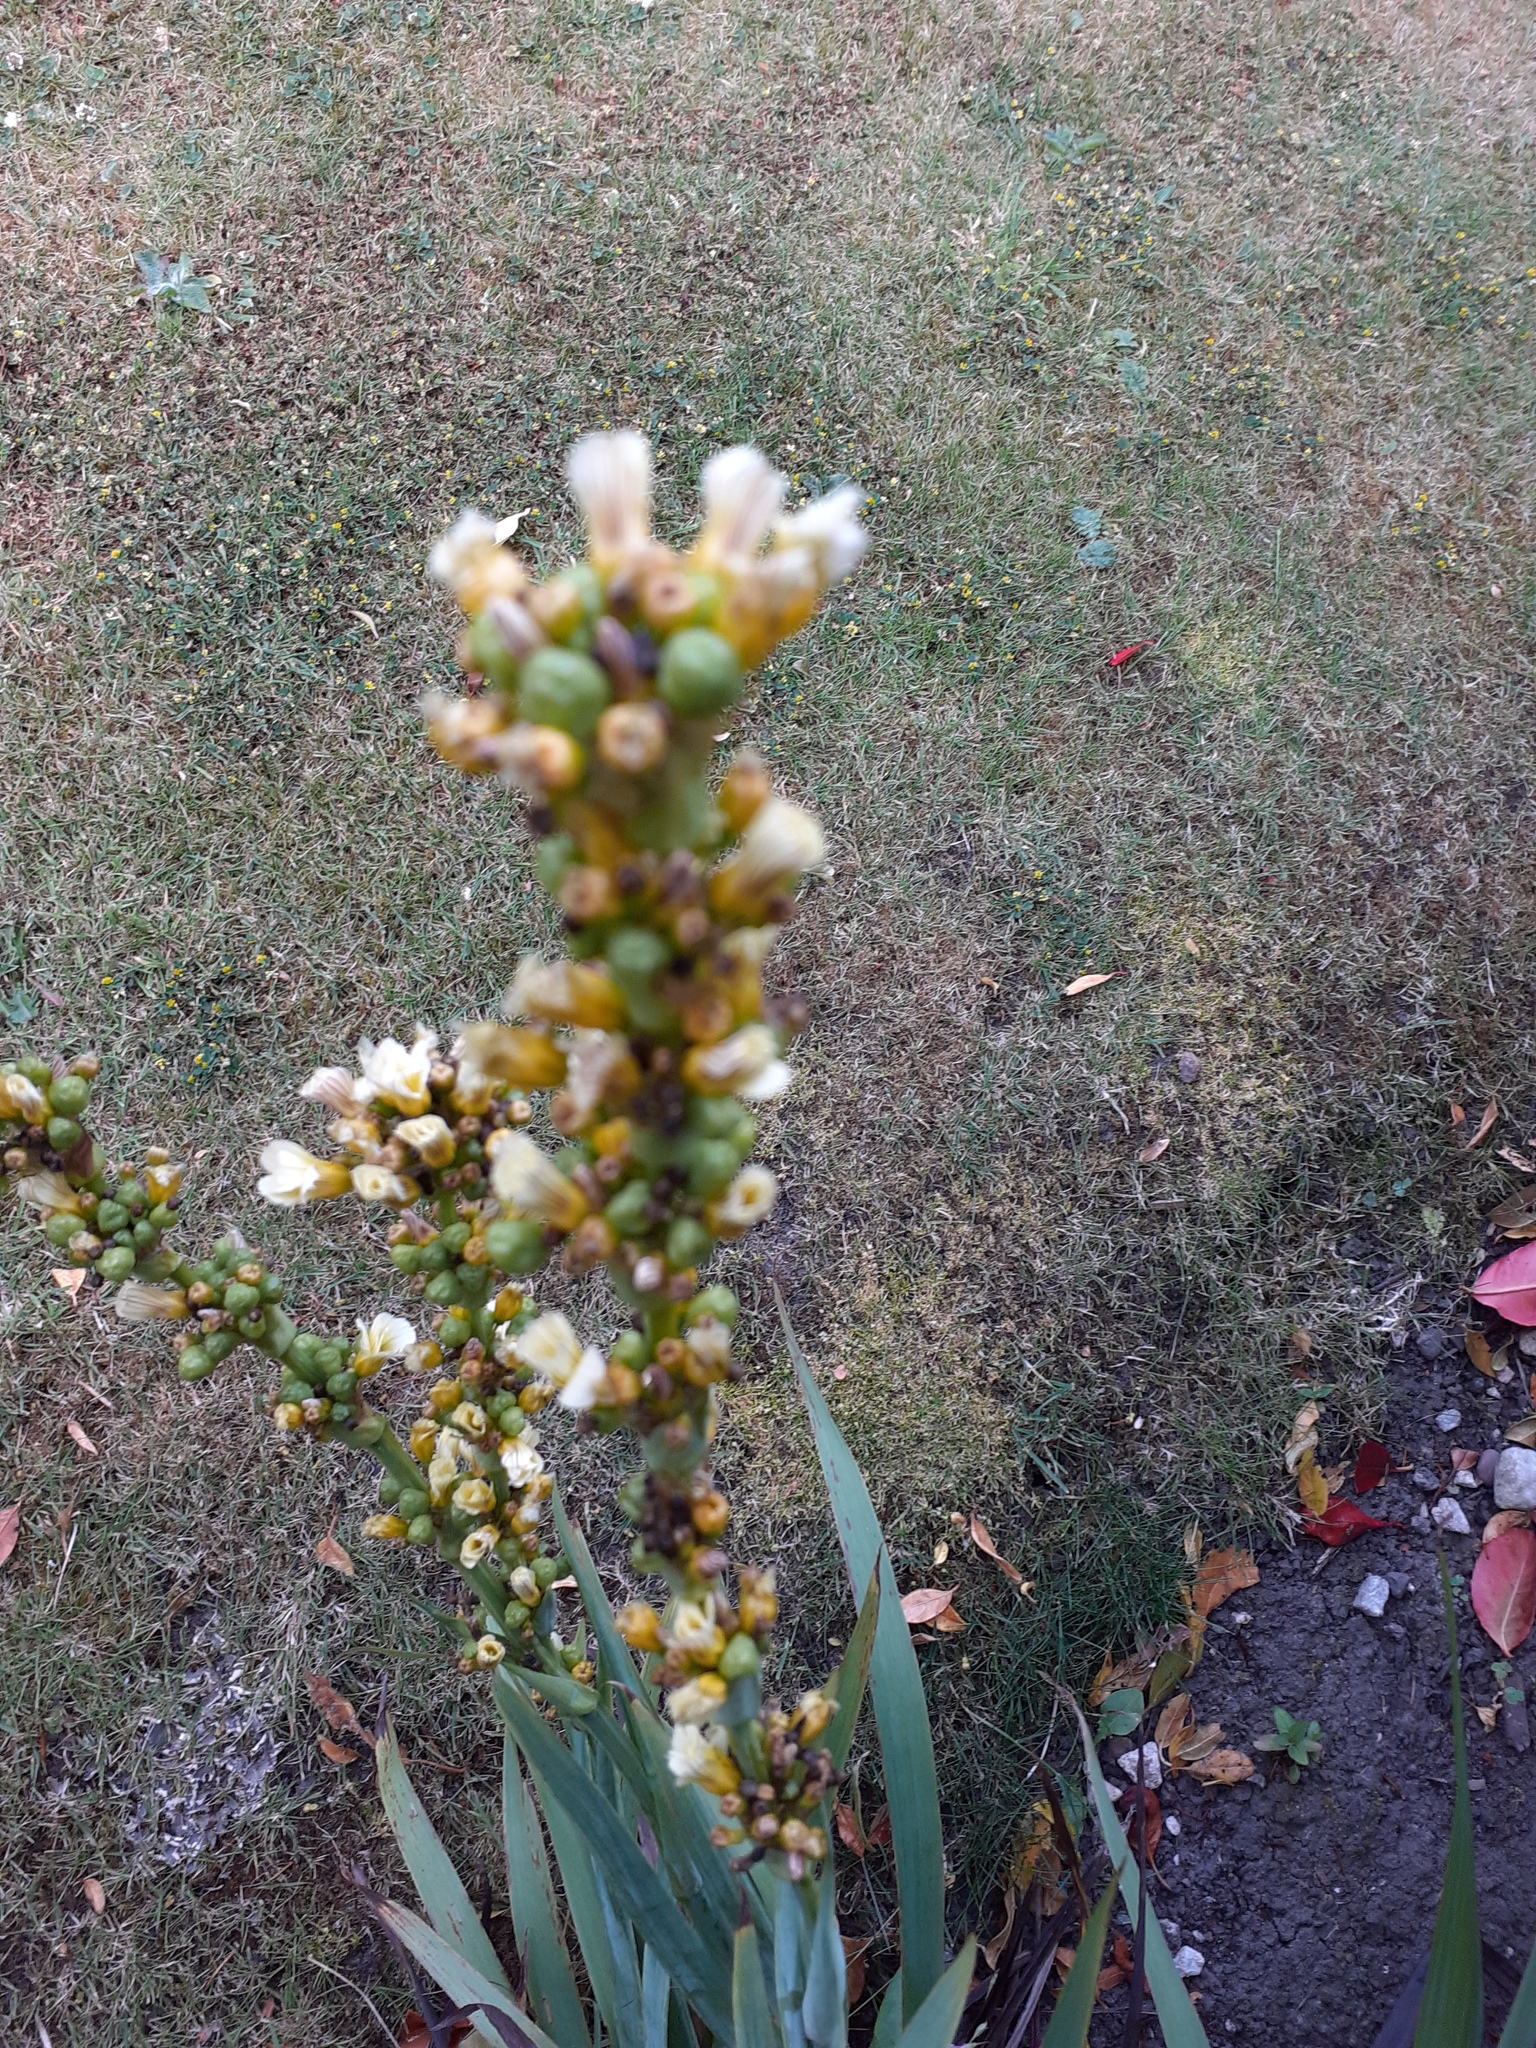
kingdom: Plantae
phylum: Tracheophyta
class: Liliopsida
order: Asparagales
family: Iridaceae
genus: Sisyrinchium
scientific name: Sisyrinchium striatum
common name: Pale yellow-eyed-grass
